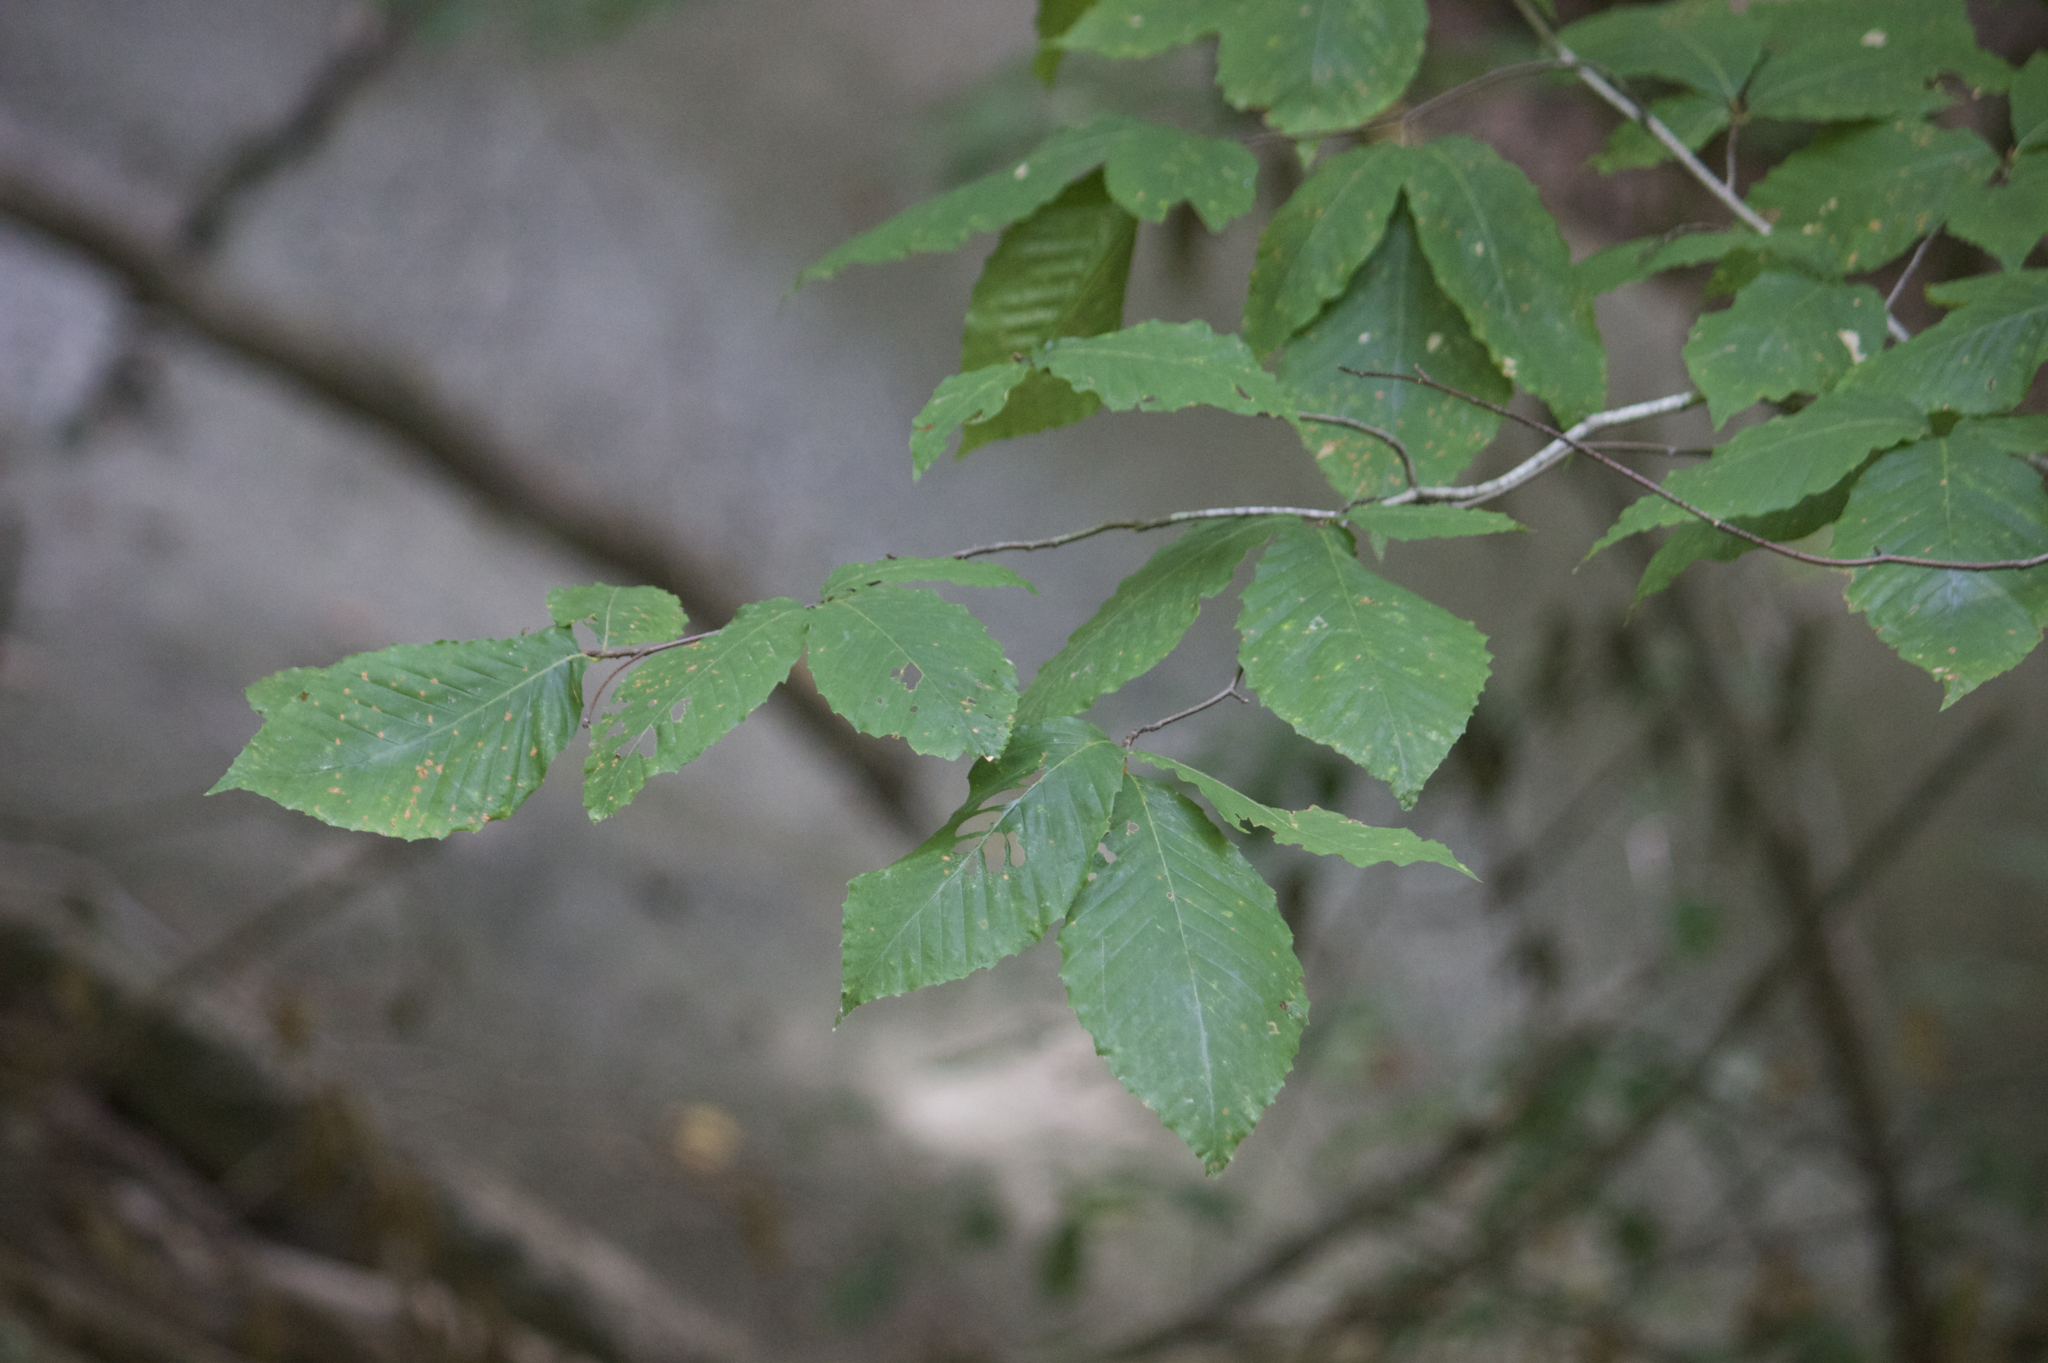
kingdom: Plantae
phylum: Tracheophyta
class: Magnoliopsida
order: Fagales
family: Fagaceae
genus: Fagus
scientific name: Fagus grandifolia
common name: American beech
